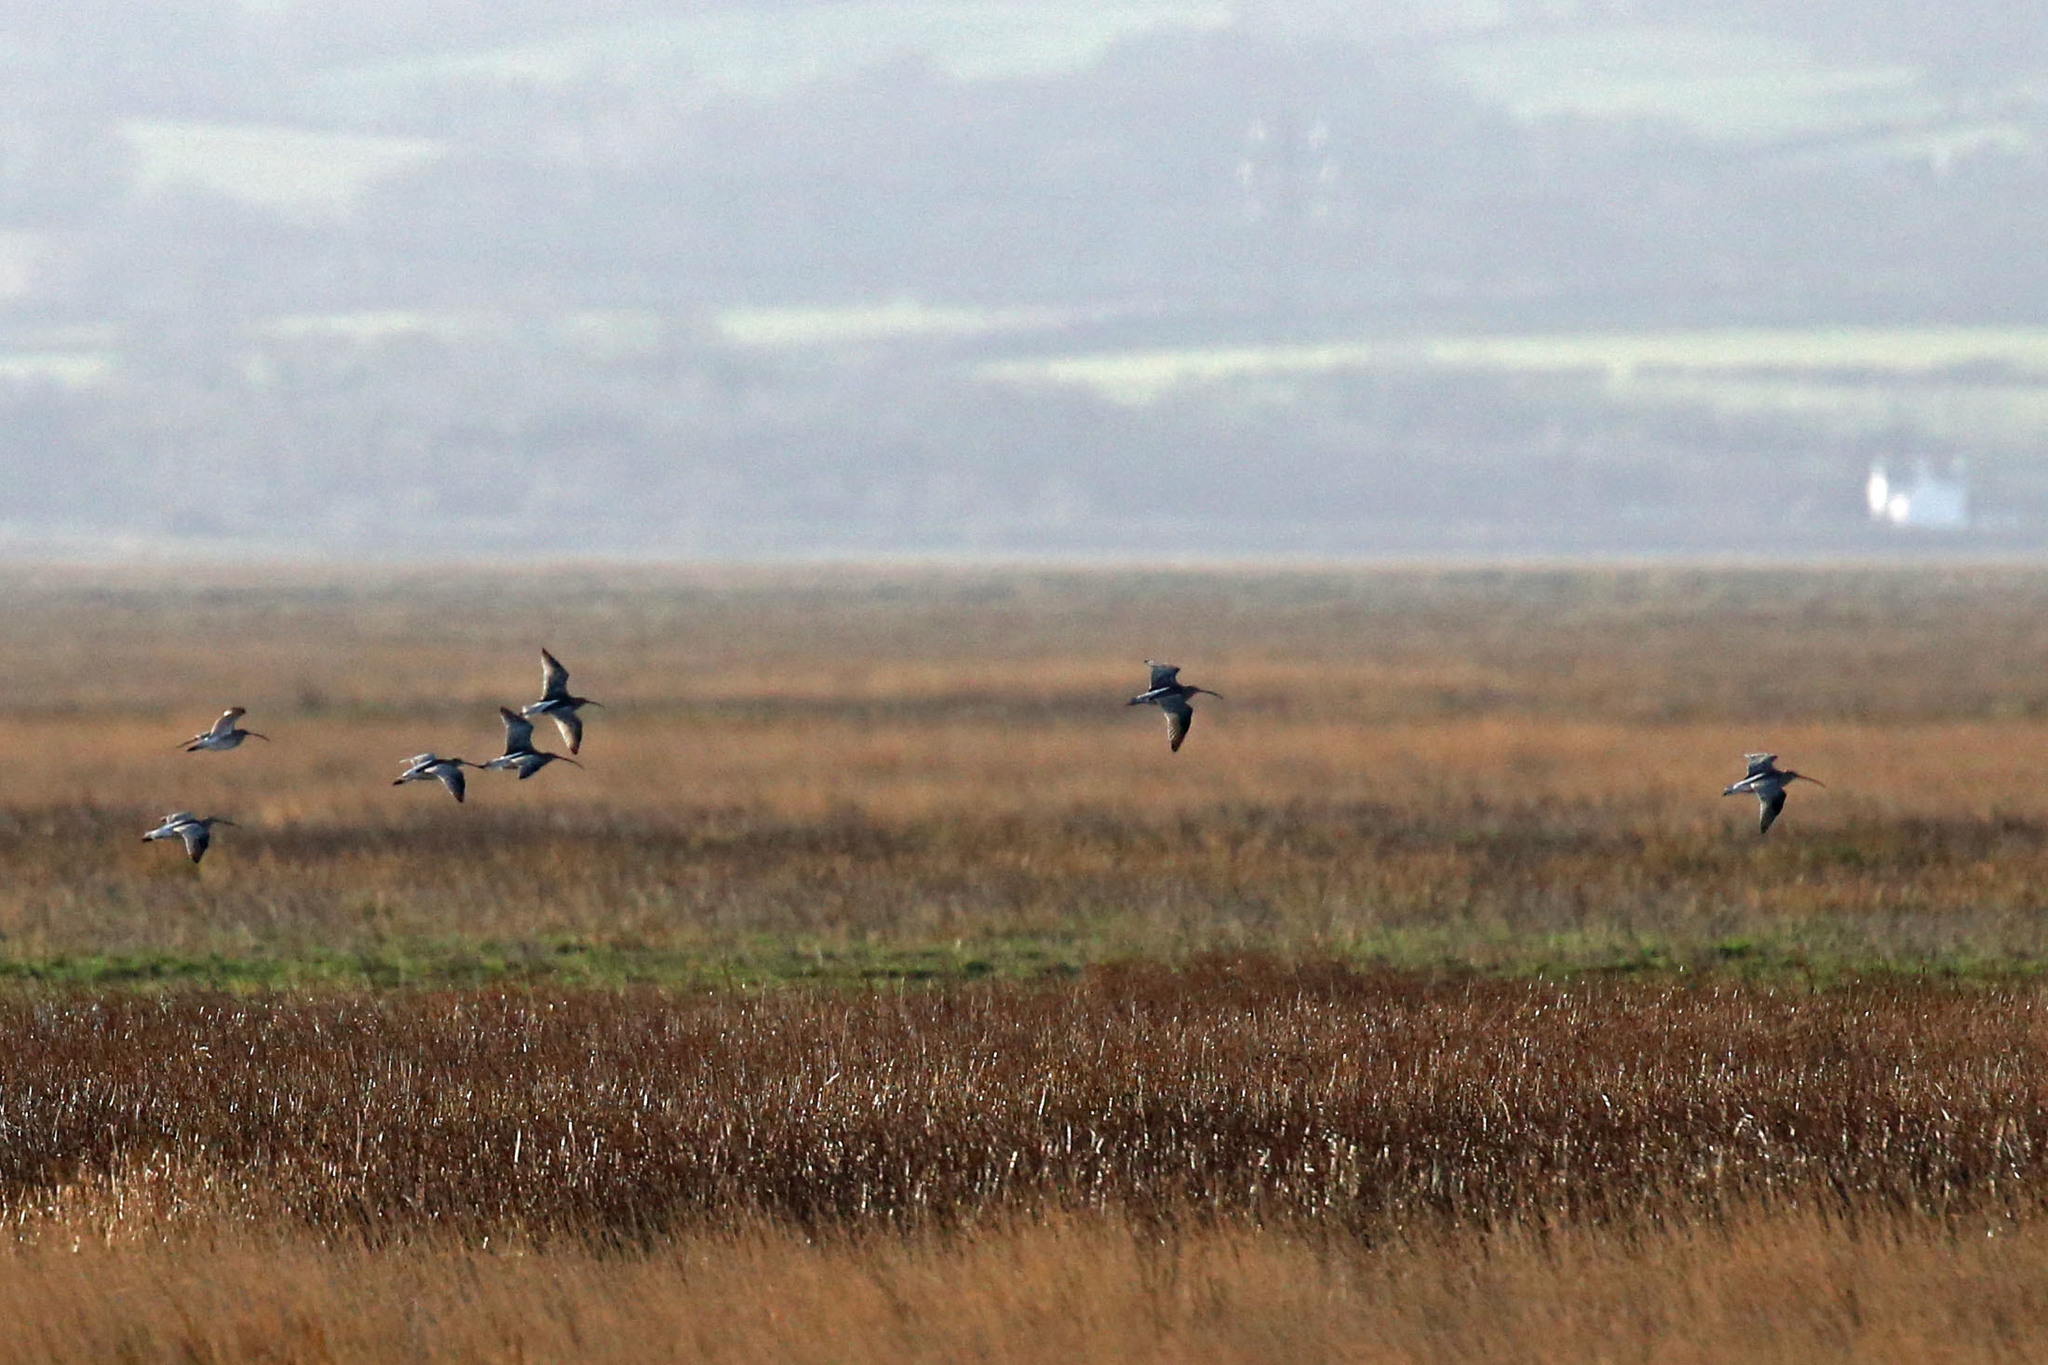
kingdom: Animalia
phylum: Chordata
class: Aves
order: Charadriiformes
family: Scolopacidae
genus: Numenius
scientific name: Numenius arquata
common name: Eurasian curlew
